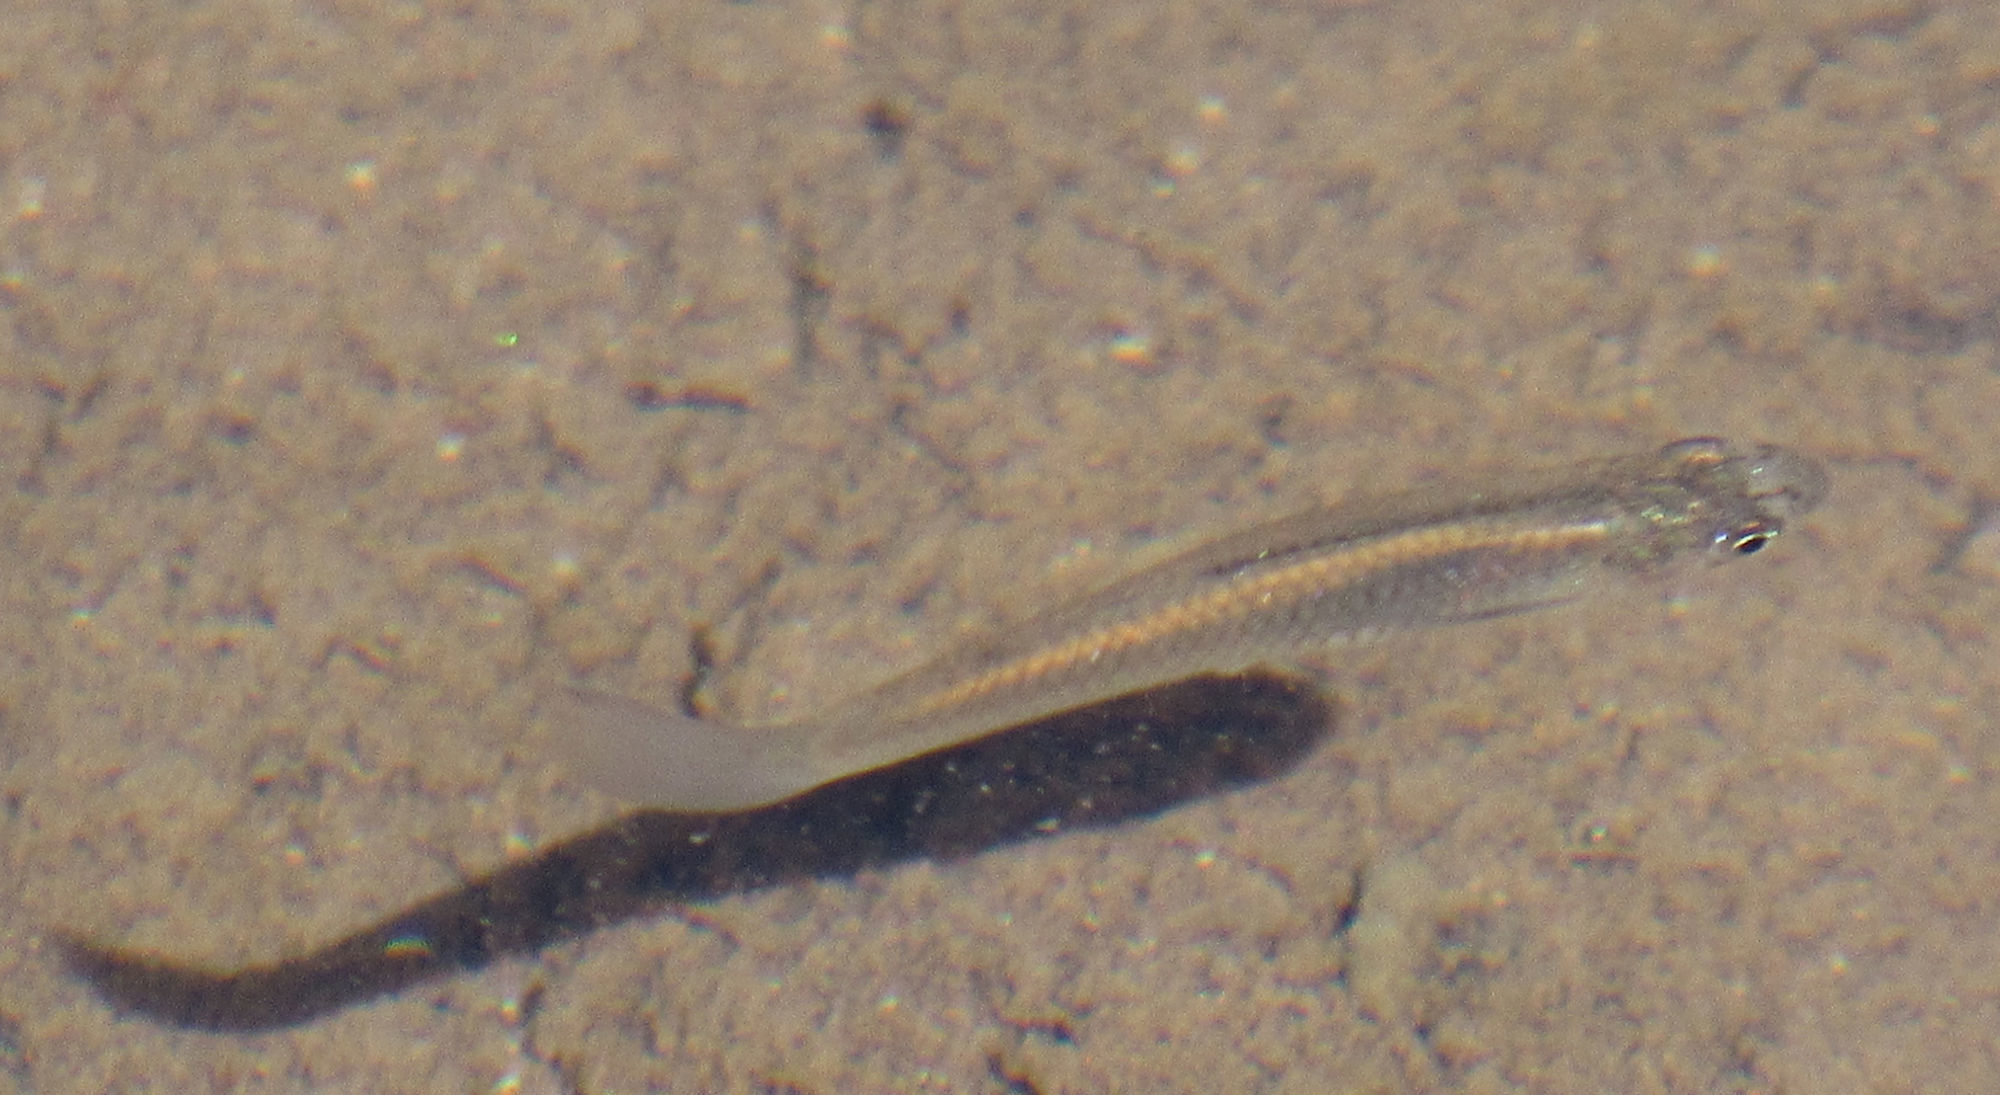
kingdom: Animalia
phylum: Chordata
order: Cyprinodontiformes
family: Poeciliidae
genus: Gambusia
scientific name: Gambusia affinis
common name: Mosquitofish
